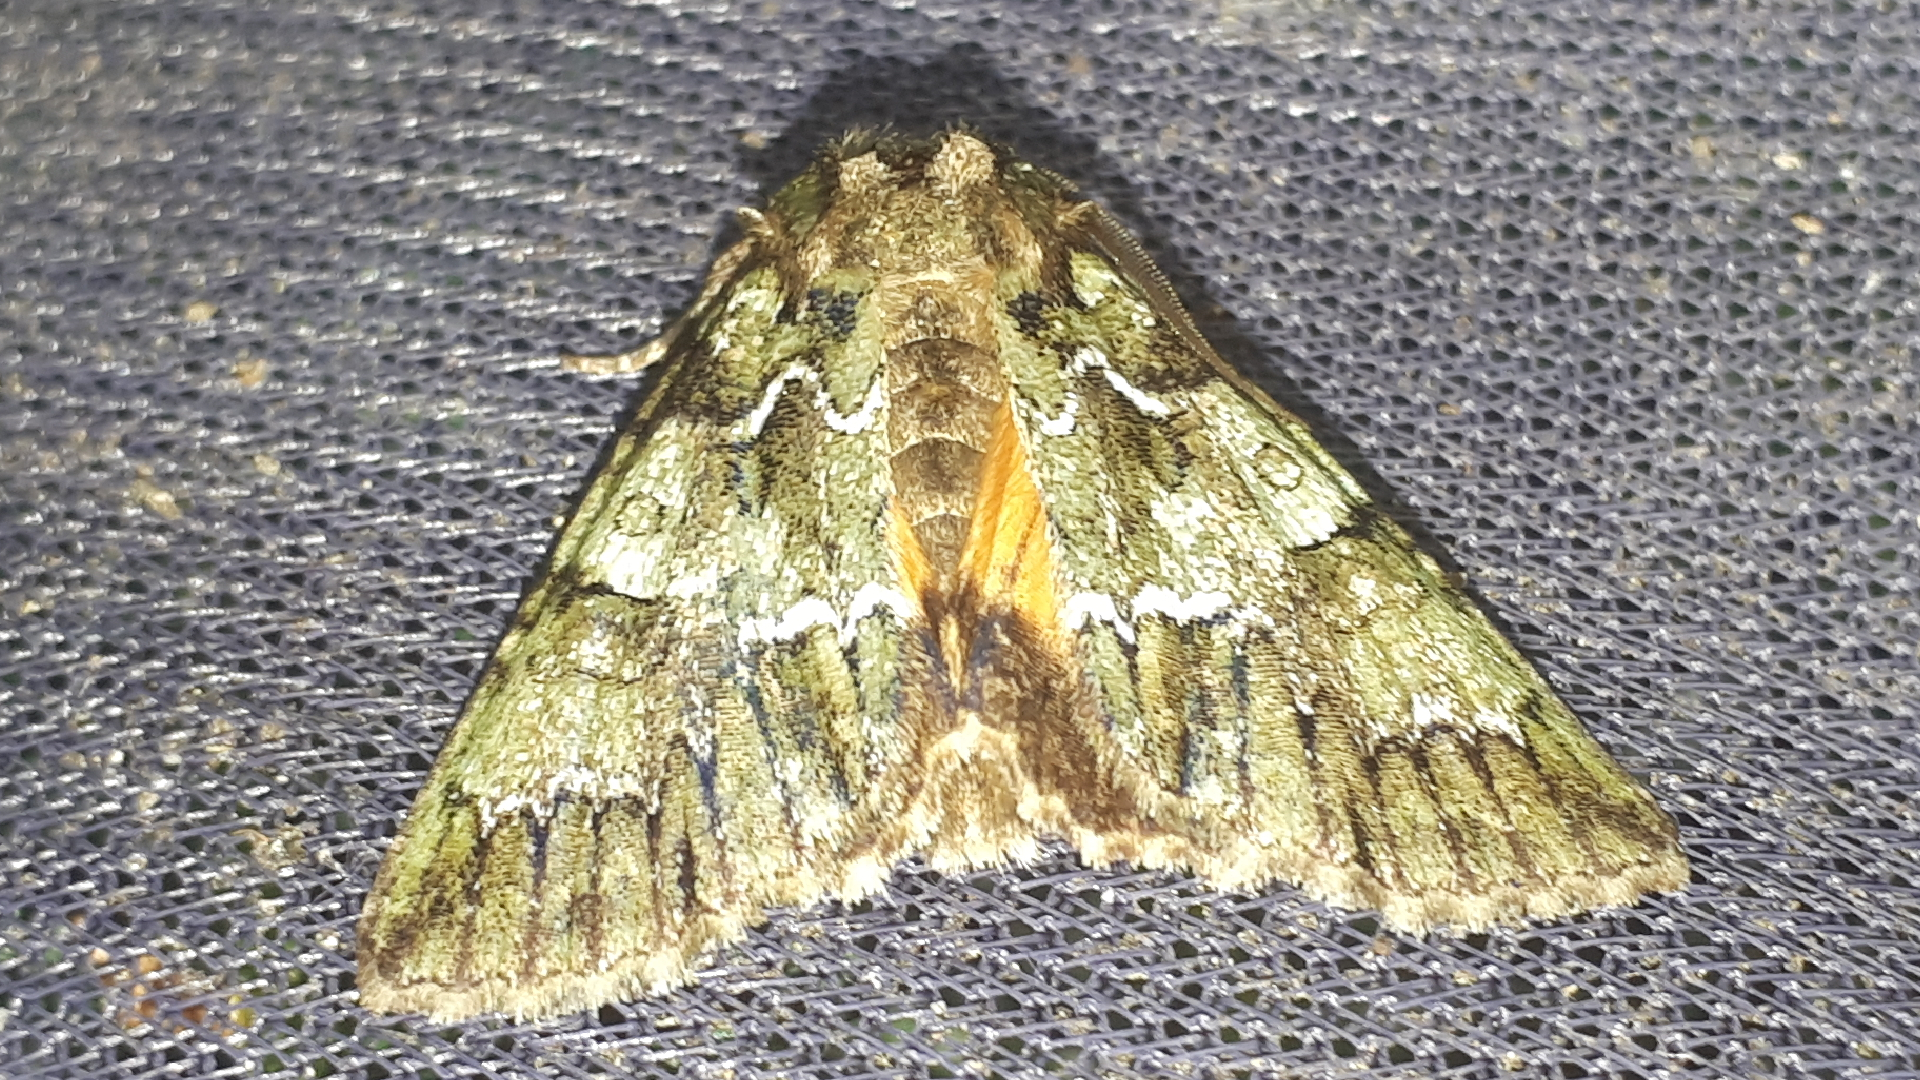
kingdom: Animalia
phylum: Arthropoda
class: Insecta
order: Lepidoptera
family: Noctuidae
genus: Polyphaenis
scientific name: Polyphaenis sericata
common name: Guernsey underwing
